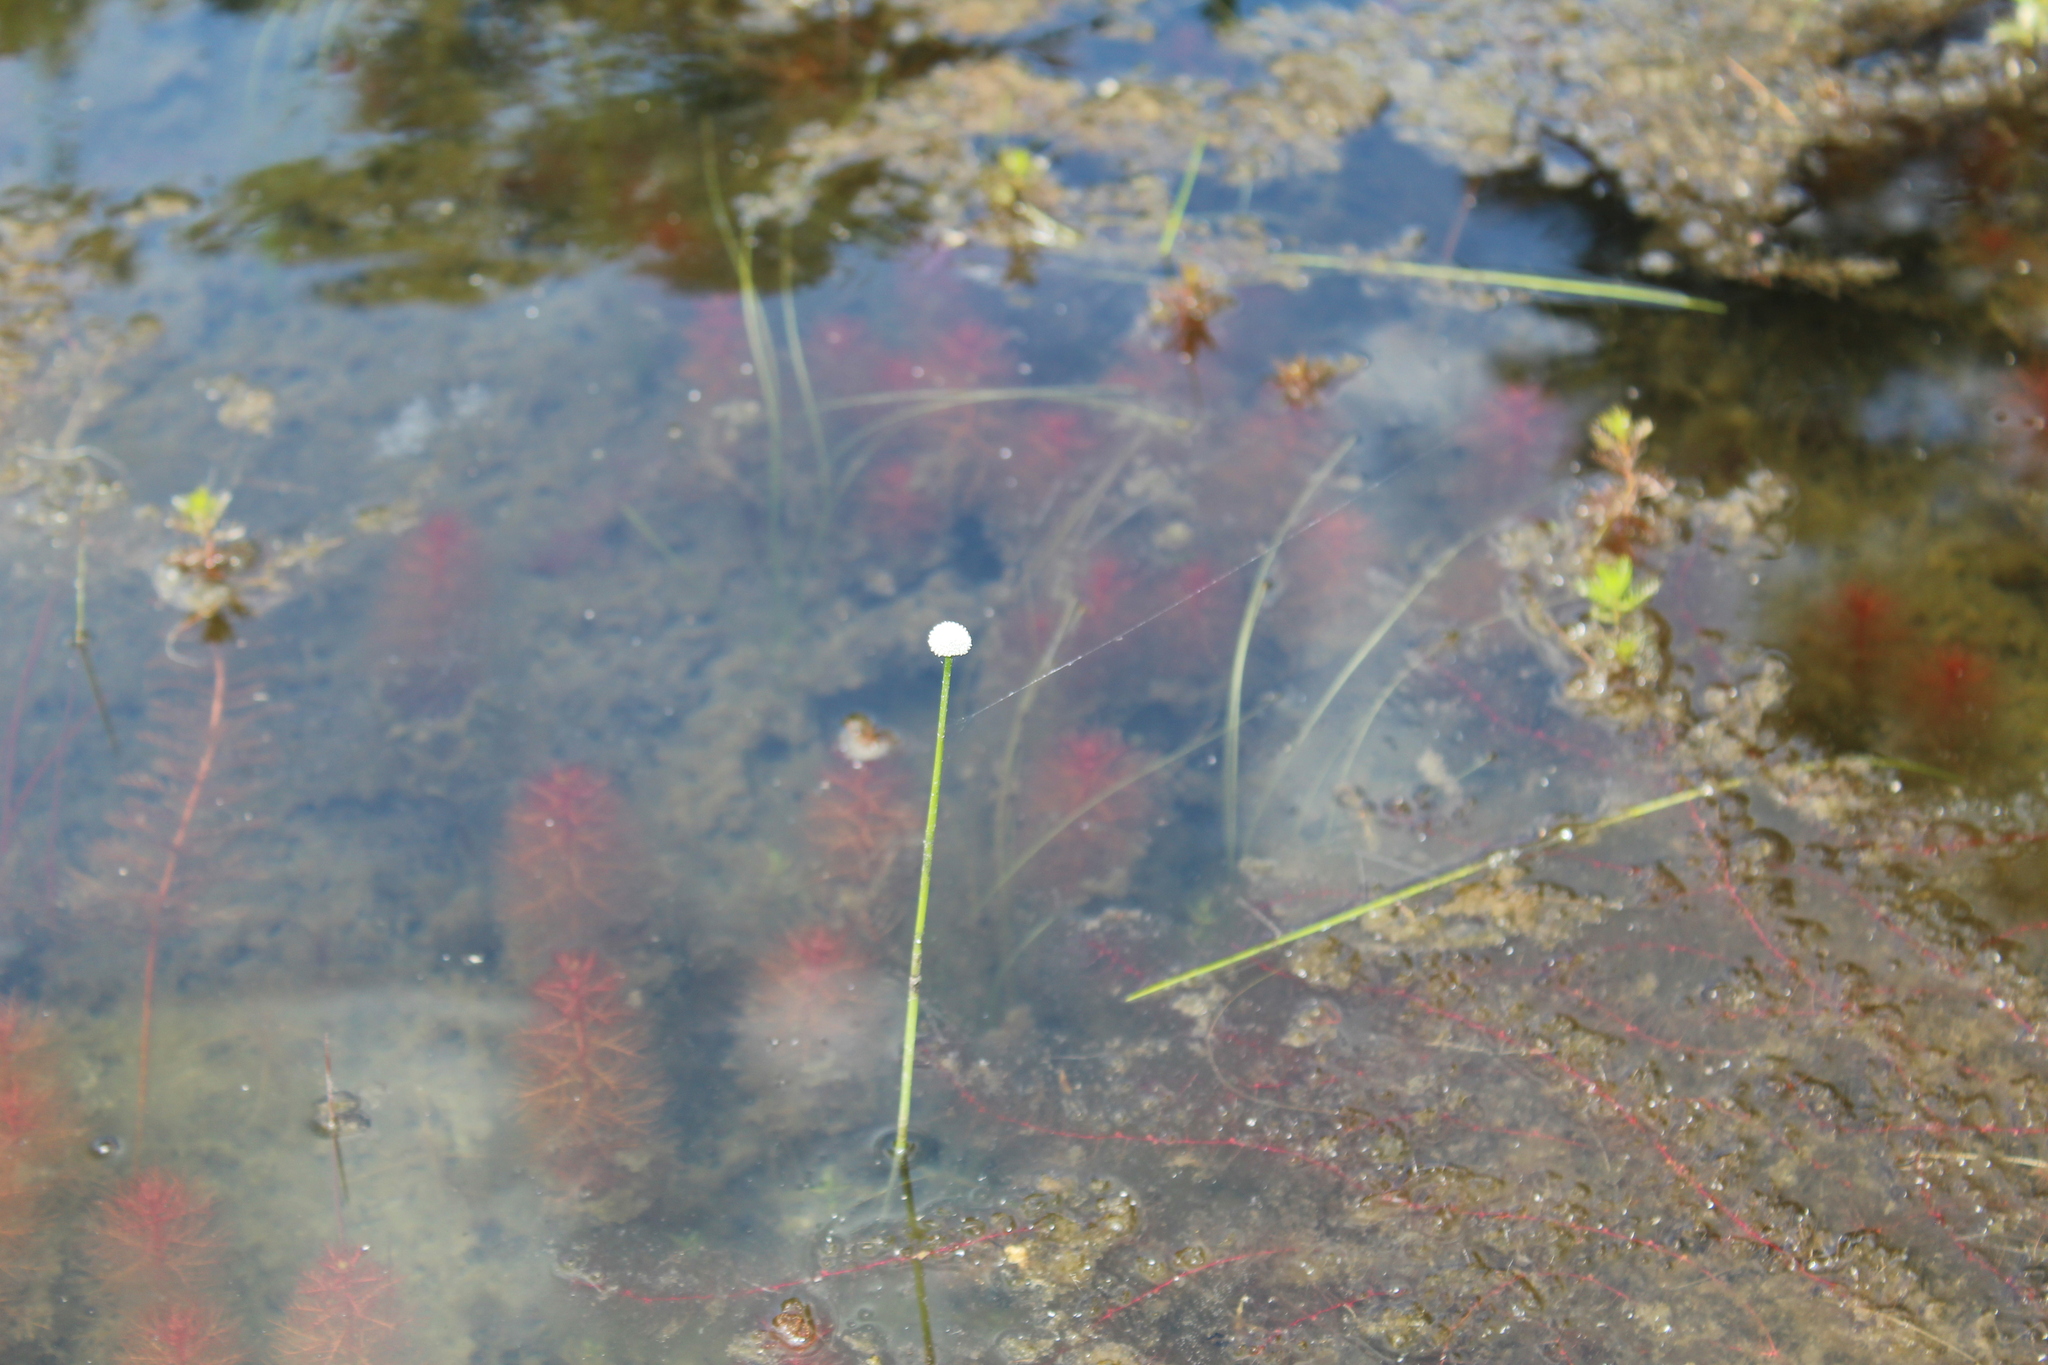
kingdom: Plantae
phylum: Tracheophyta
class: Liliopsida
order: Poales
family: Eriocaulaceae
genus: Eriocaulon
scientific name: Eriocaulon aquaticum
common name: Pipewort
